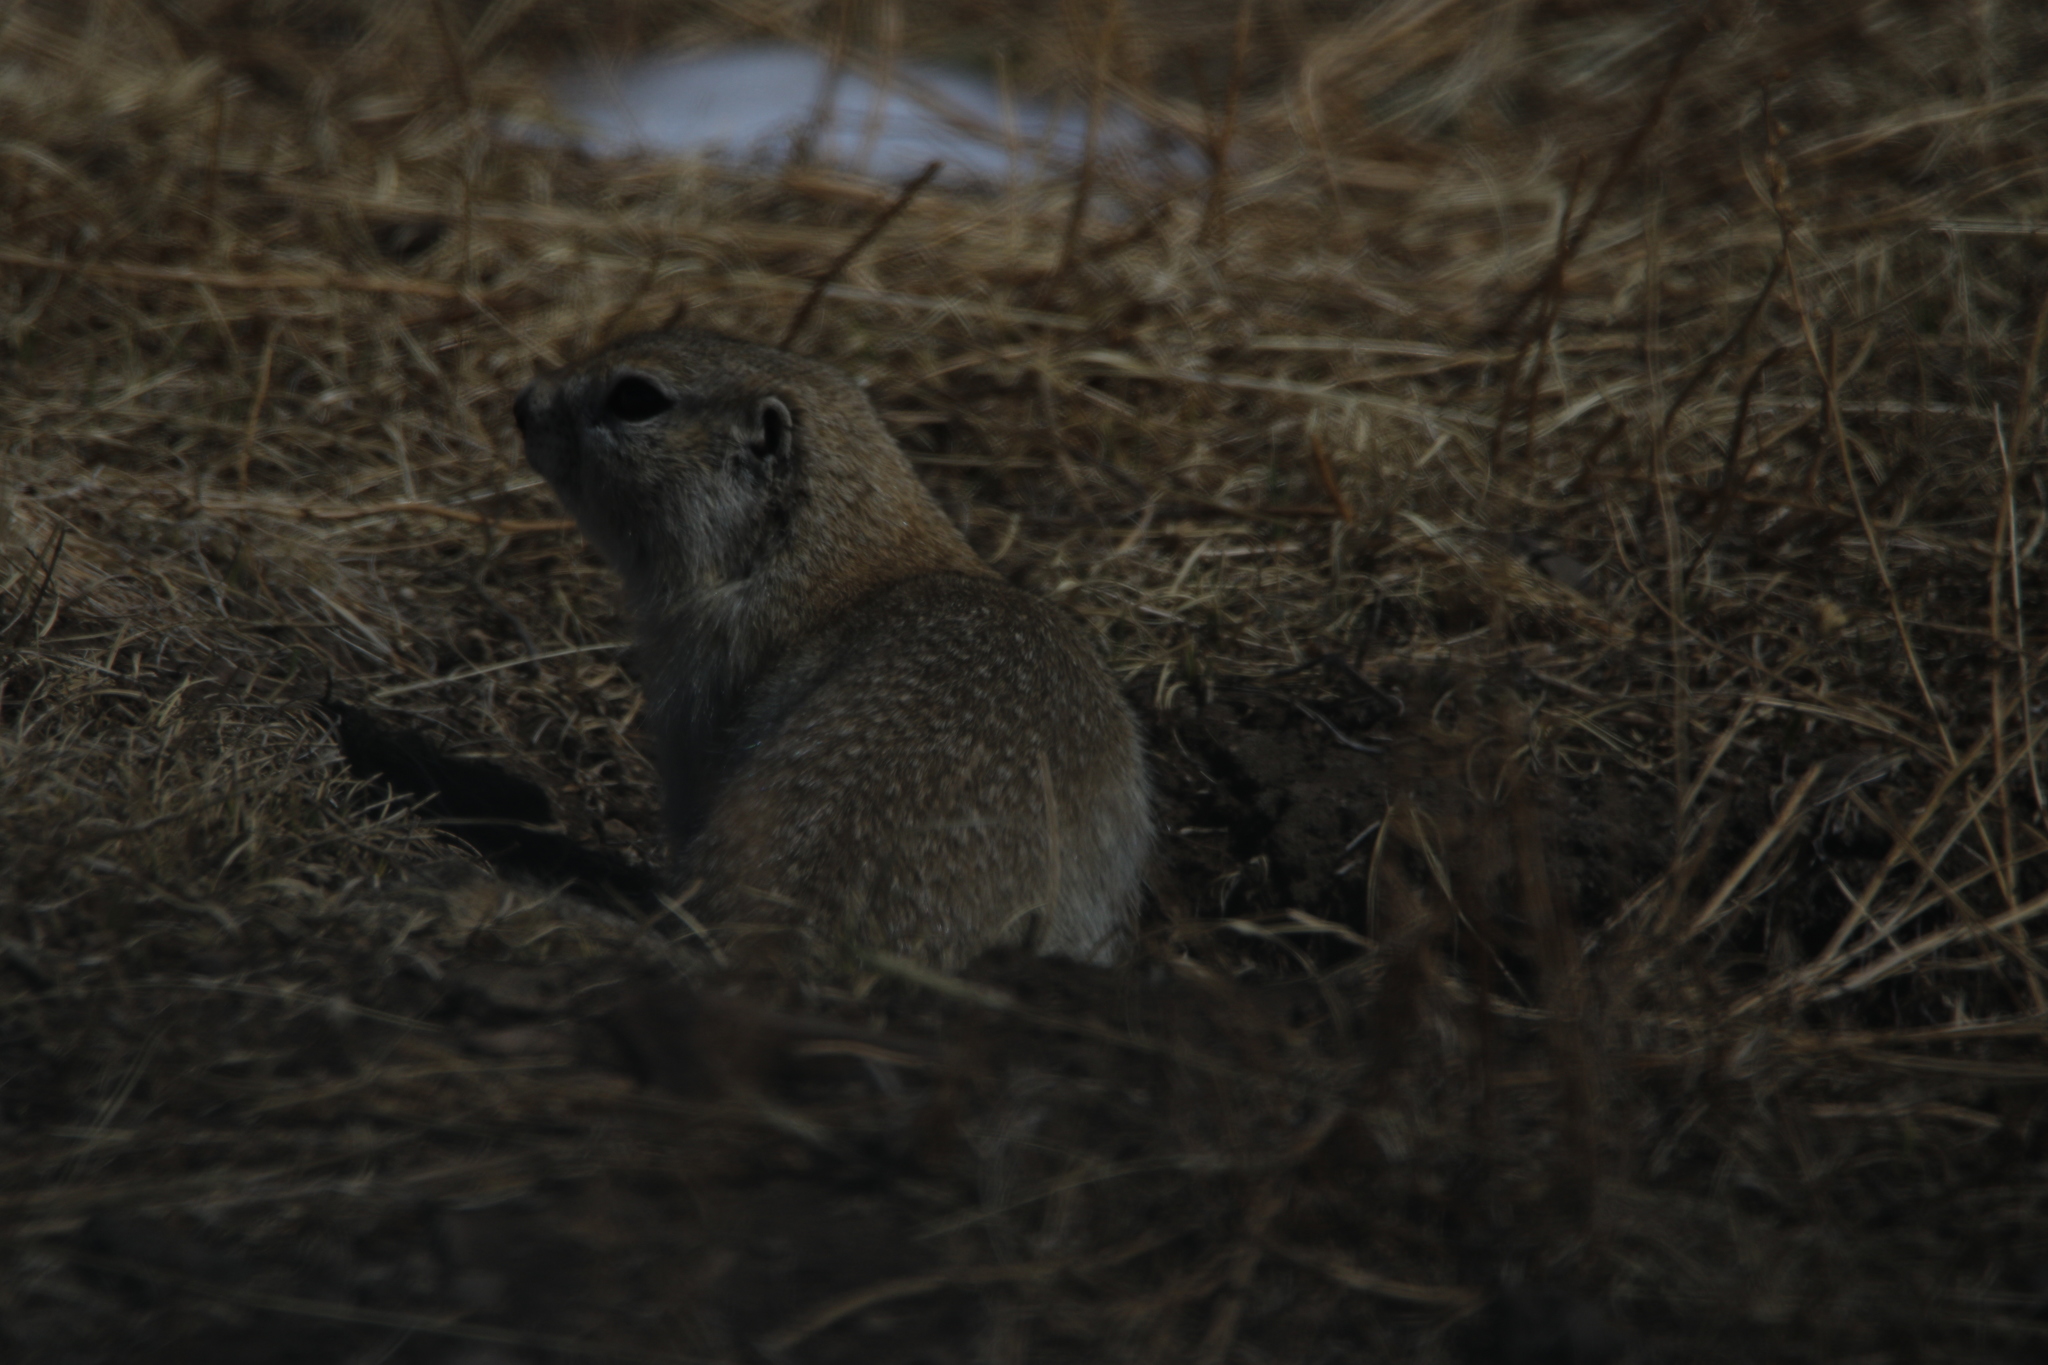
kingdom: Animalia
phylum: Chordata
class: Mammalia
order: Rodentia
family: Sciuridae
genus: Urocitellus
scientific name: Urocitellus undulatus
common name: Long-tailed ground squirrel
